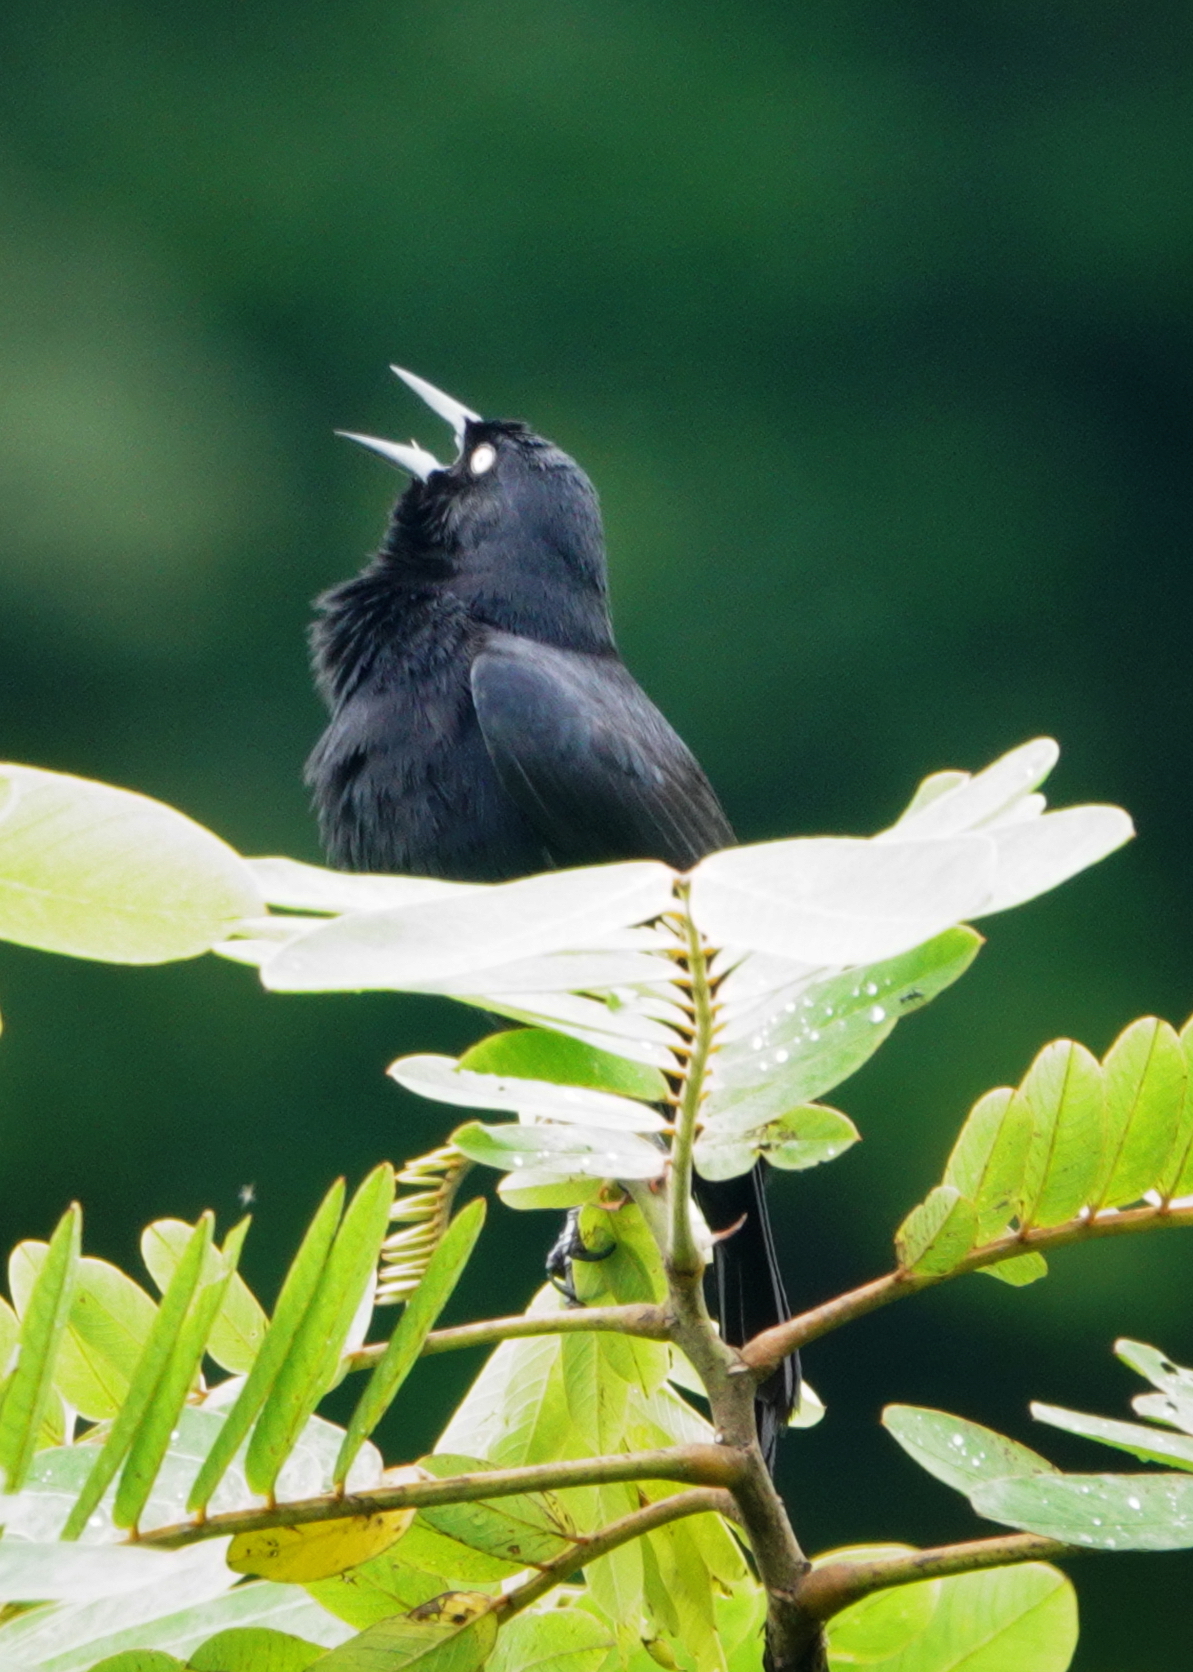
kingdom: Animalia
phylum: Chordata
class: Aves
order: Passeriformes
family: Icteridae
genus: Agelasticus
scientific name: Agelasticus xanthophthalmus
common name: Pale-eyed blackbird
